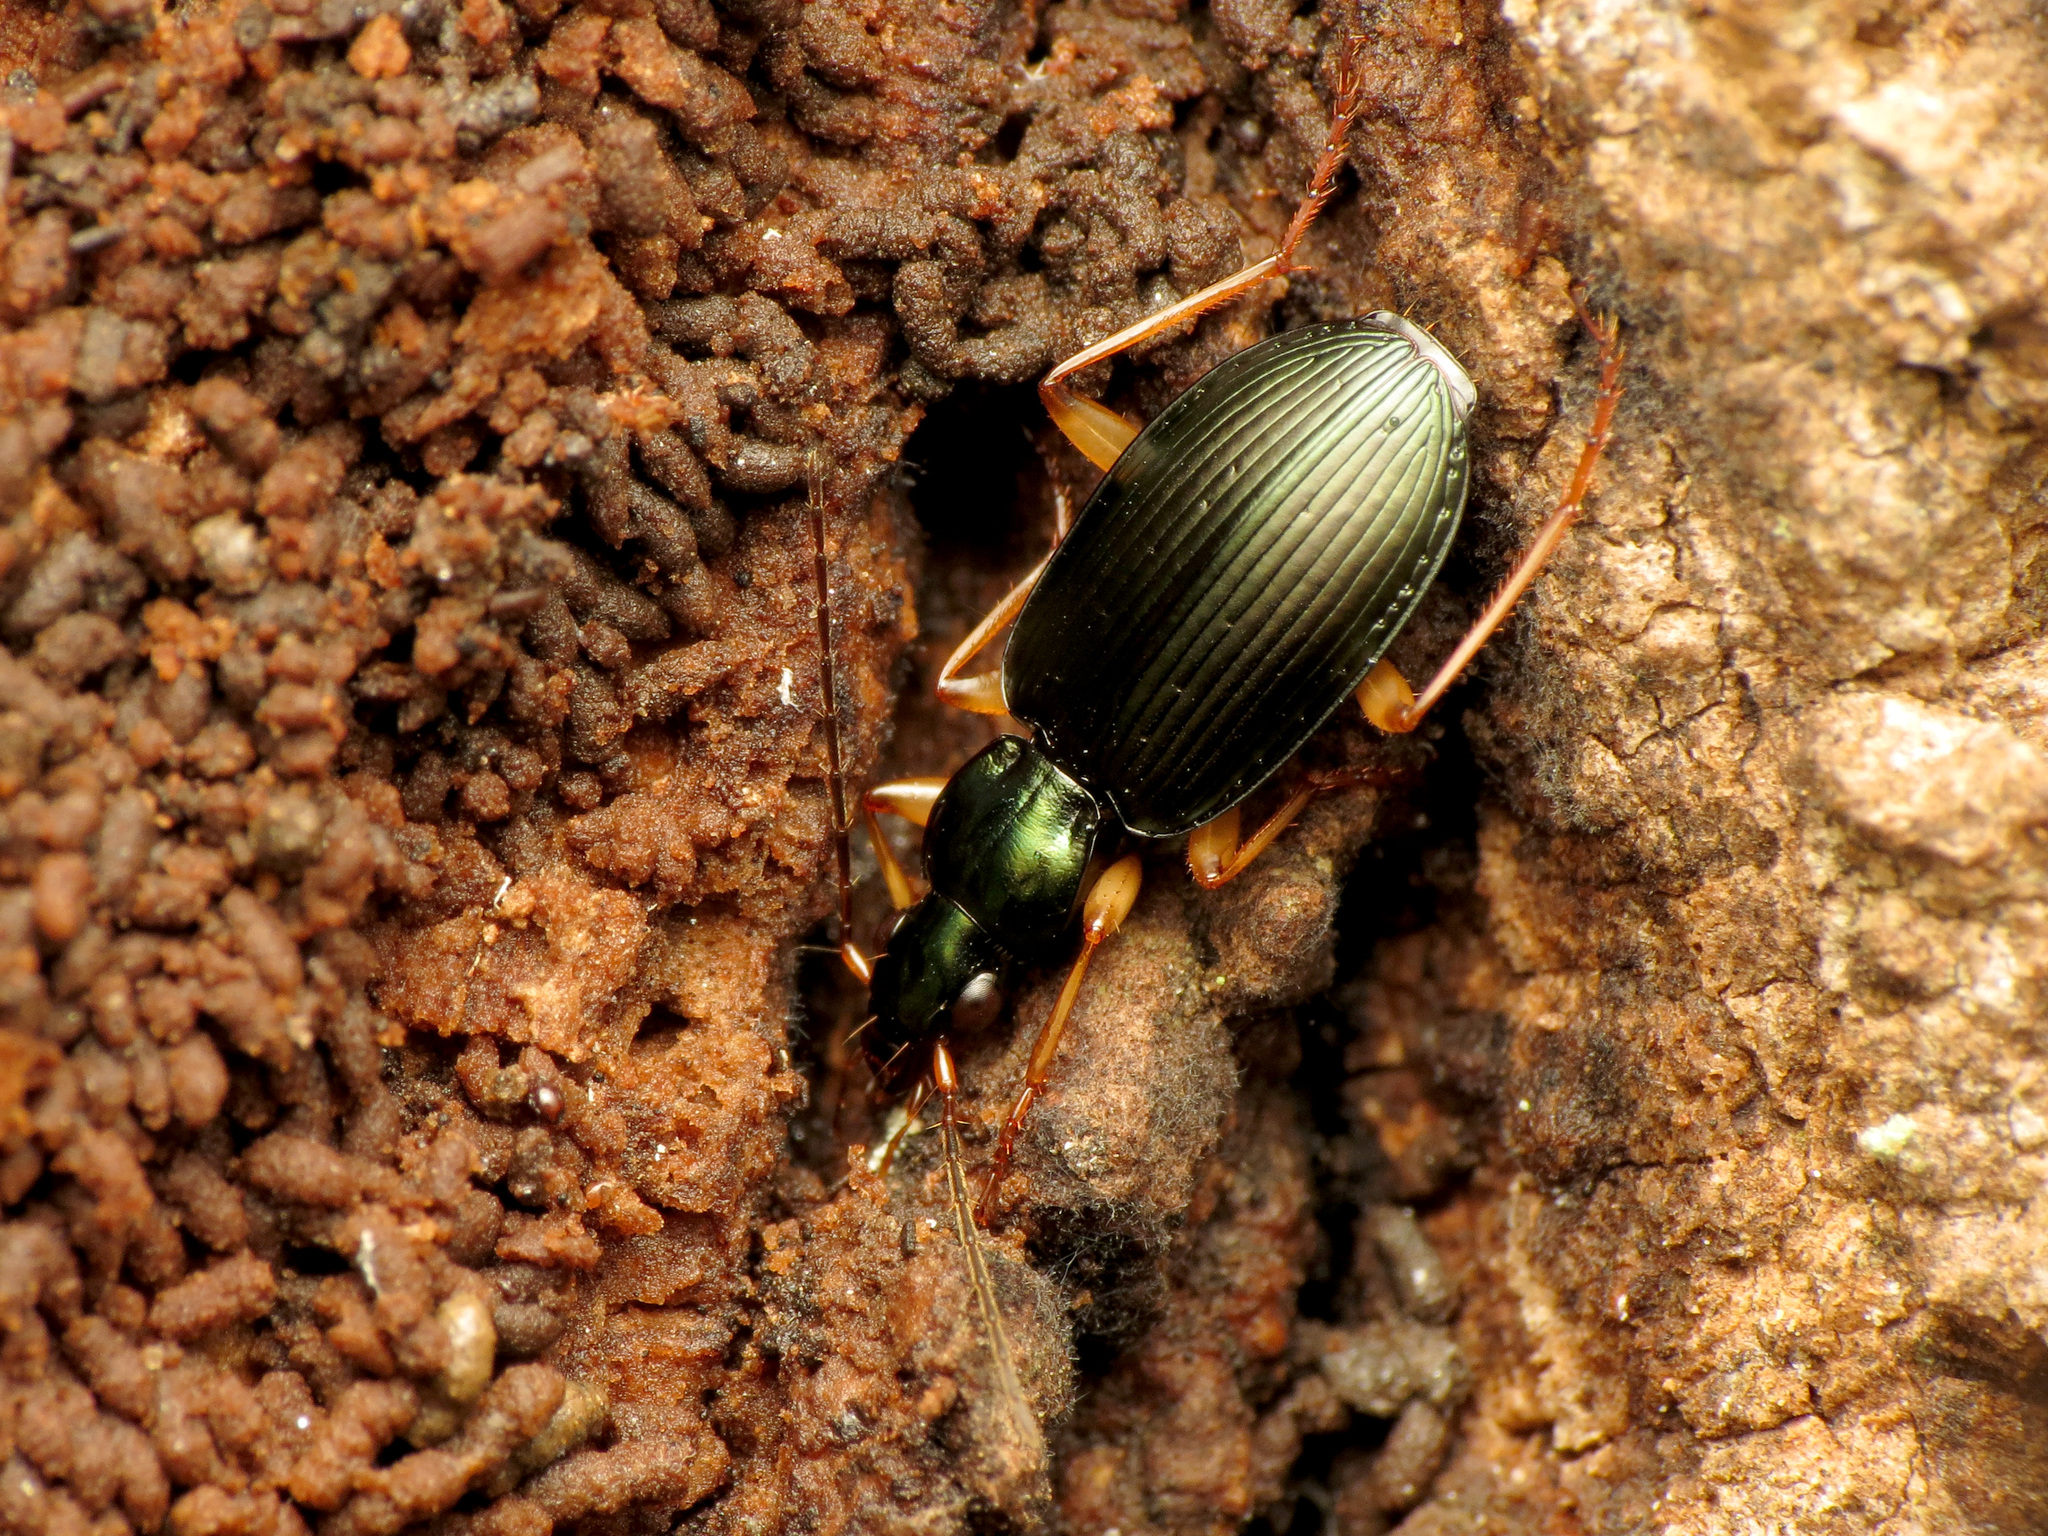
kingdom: Animalia
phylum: Arthropoda
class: Insecta
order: Coleoptera
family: Carabidae
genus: Agonum
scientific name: Agonum extensicolle
